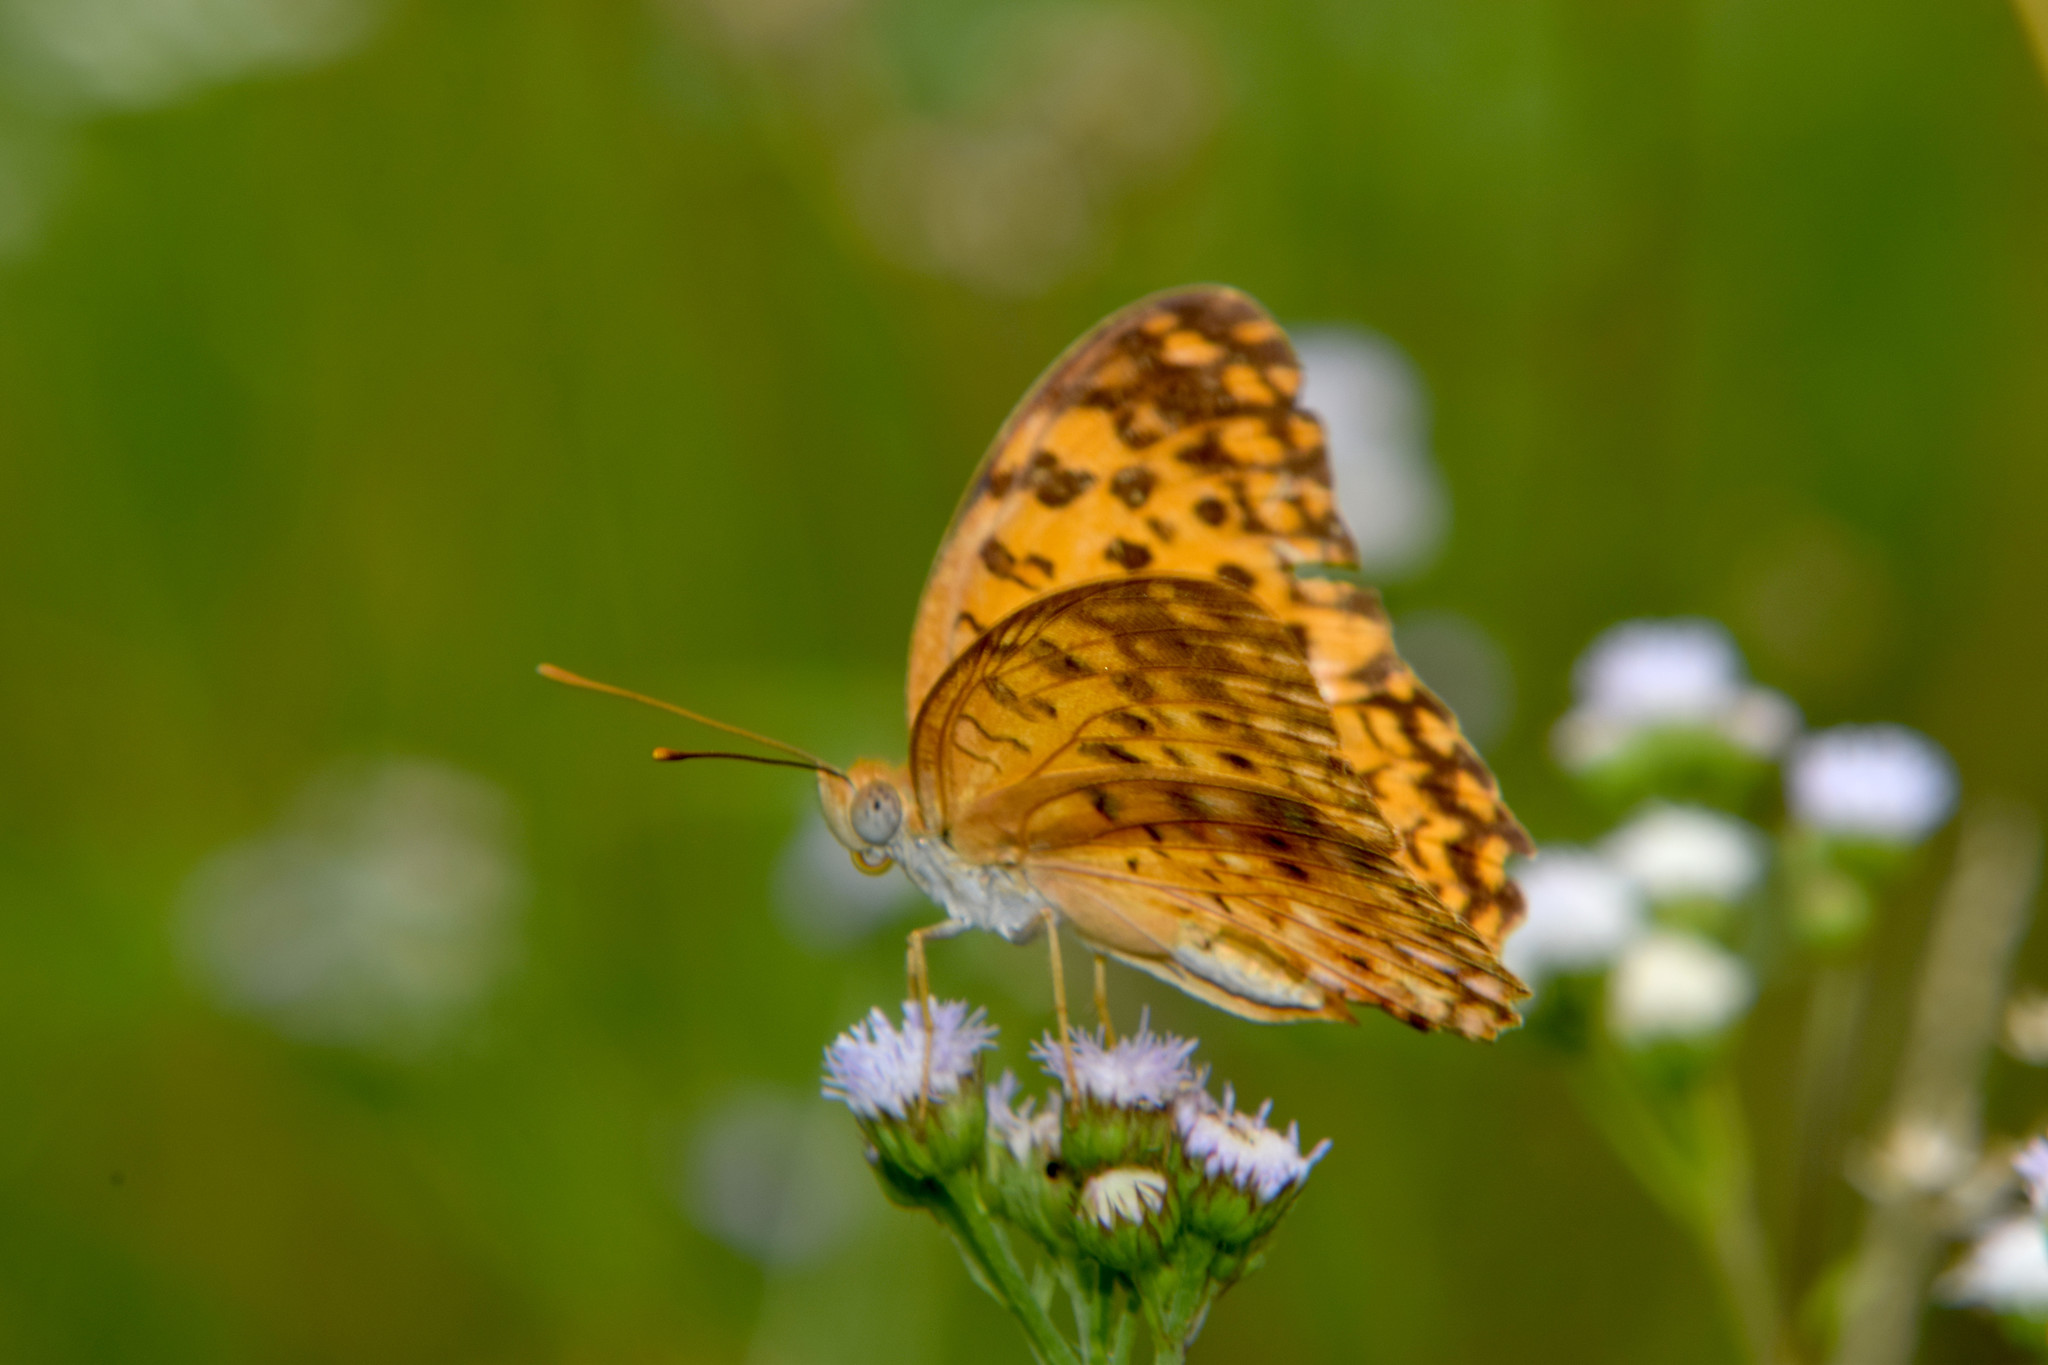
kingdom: Animalia
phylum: Arthropoda
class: Insecta
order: Lepidoptera
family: Nymphalidae
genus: Phalanta
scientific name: Phalanta phalantha
